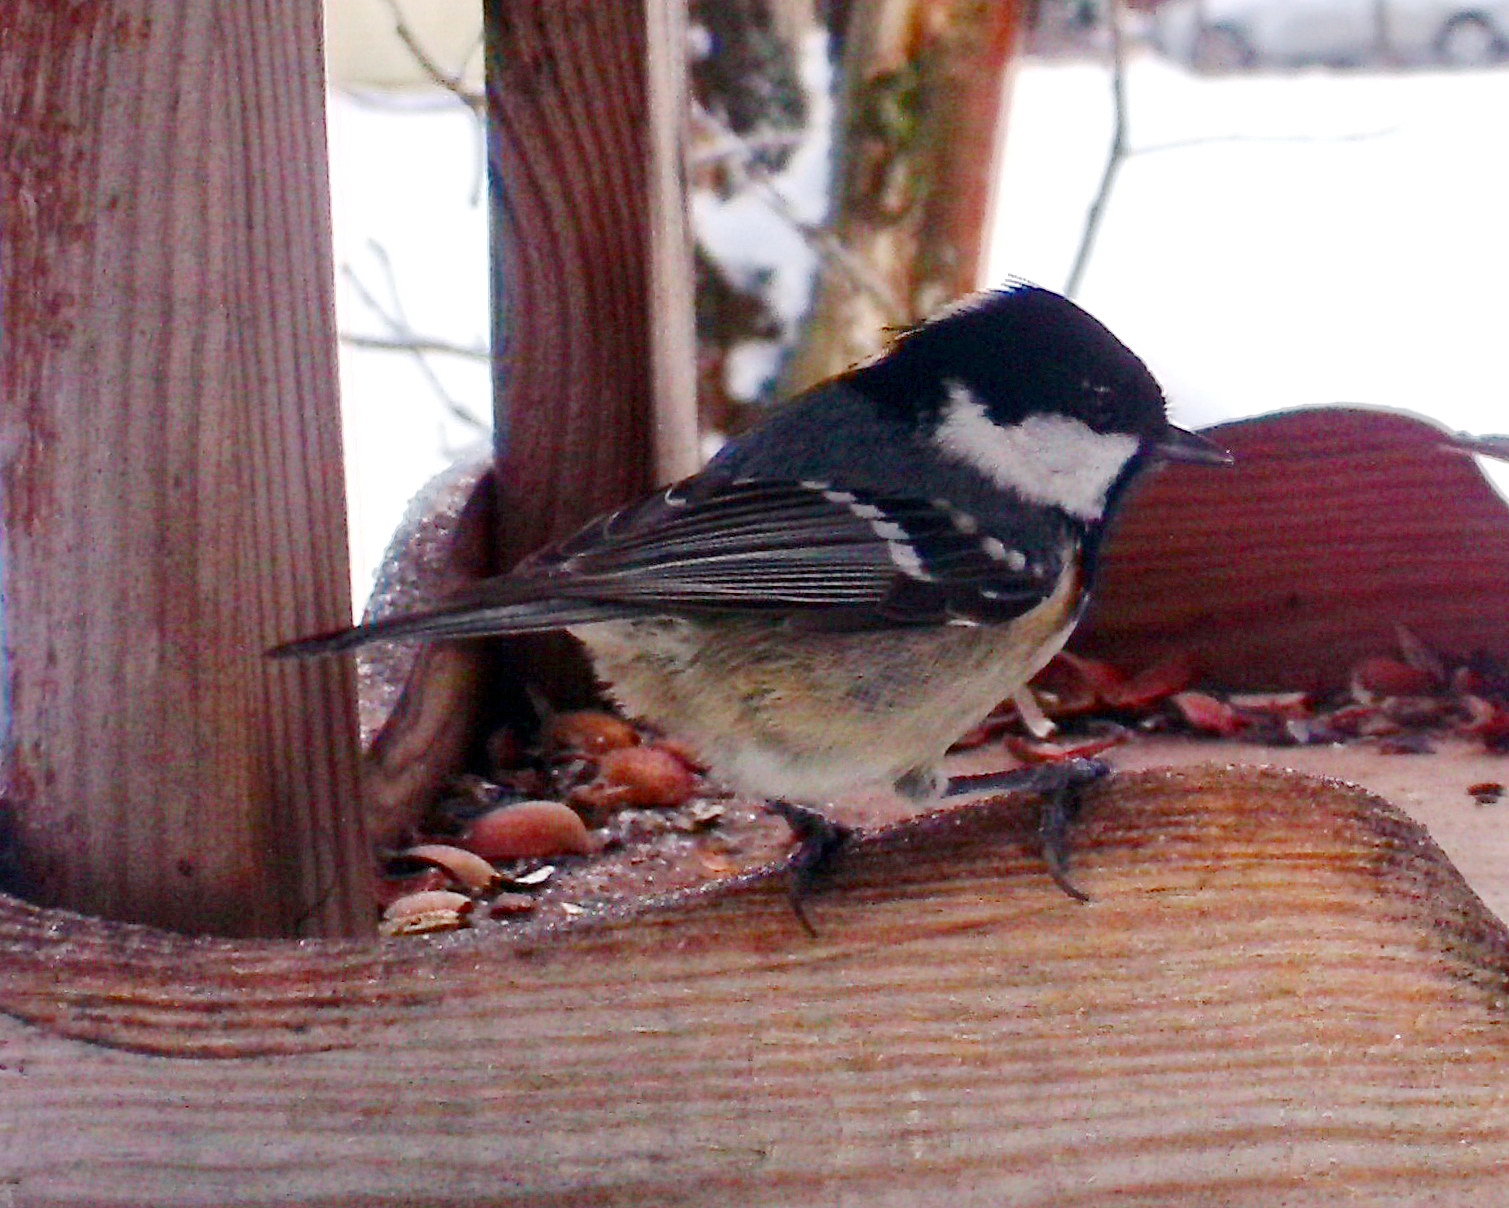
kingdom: Animalia
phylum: Chordata
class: Aves
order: Passeriformes
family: Paridae
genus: Periparus
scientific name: Periparus ater
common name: Coal tit
